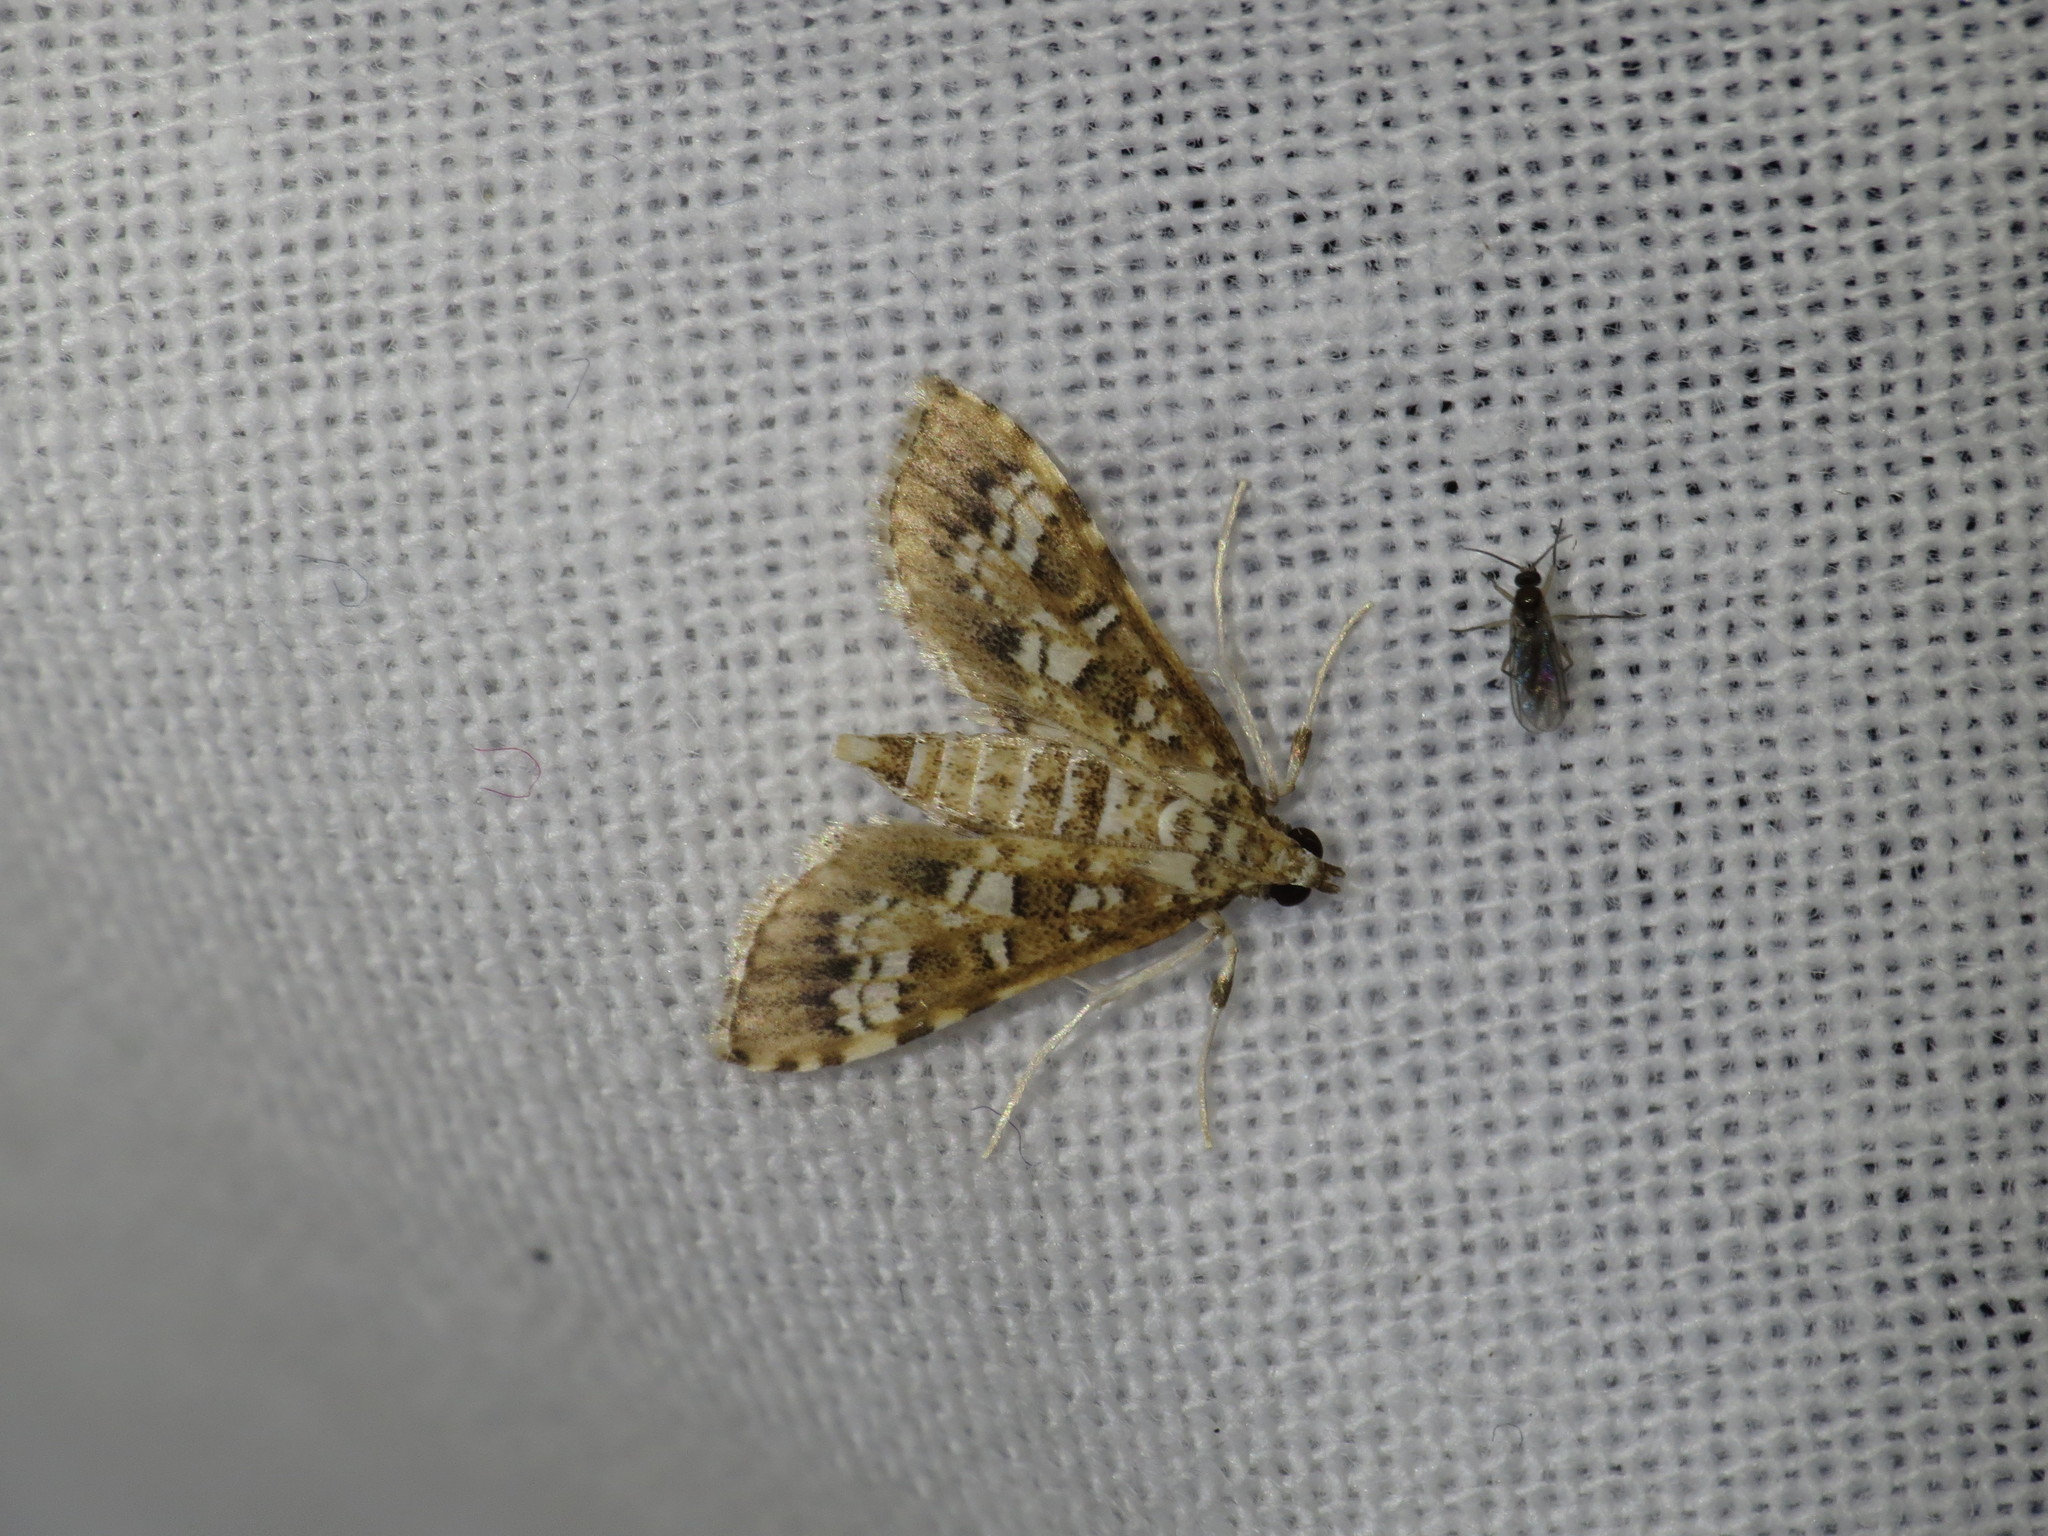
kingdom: Animalia
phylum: Arthropoda
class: Insecta
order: Lepidoptera
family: Crambidae
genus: Samea
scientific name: Samea multiplicalis
